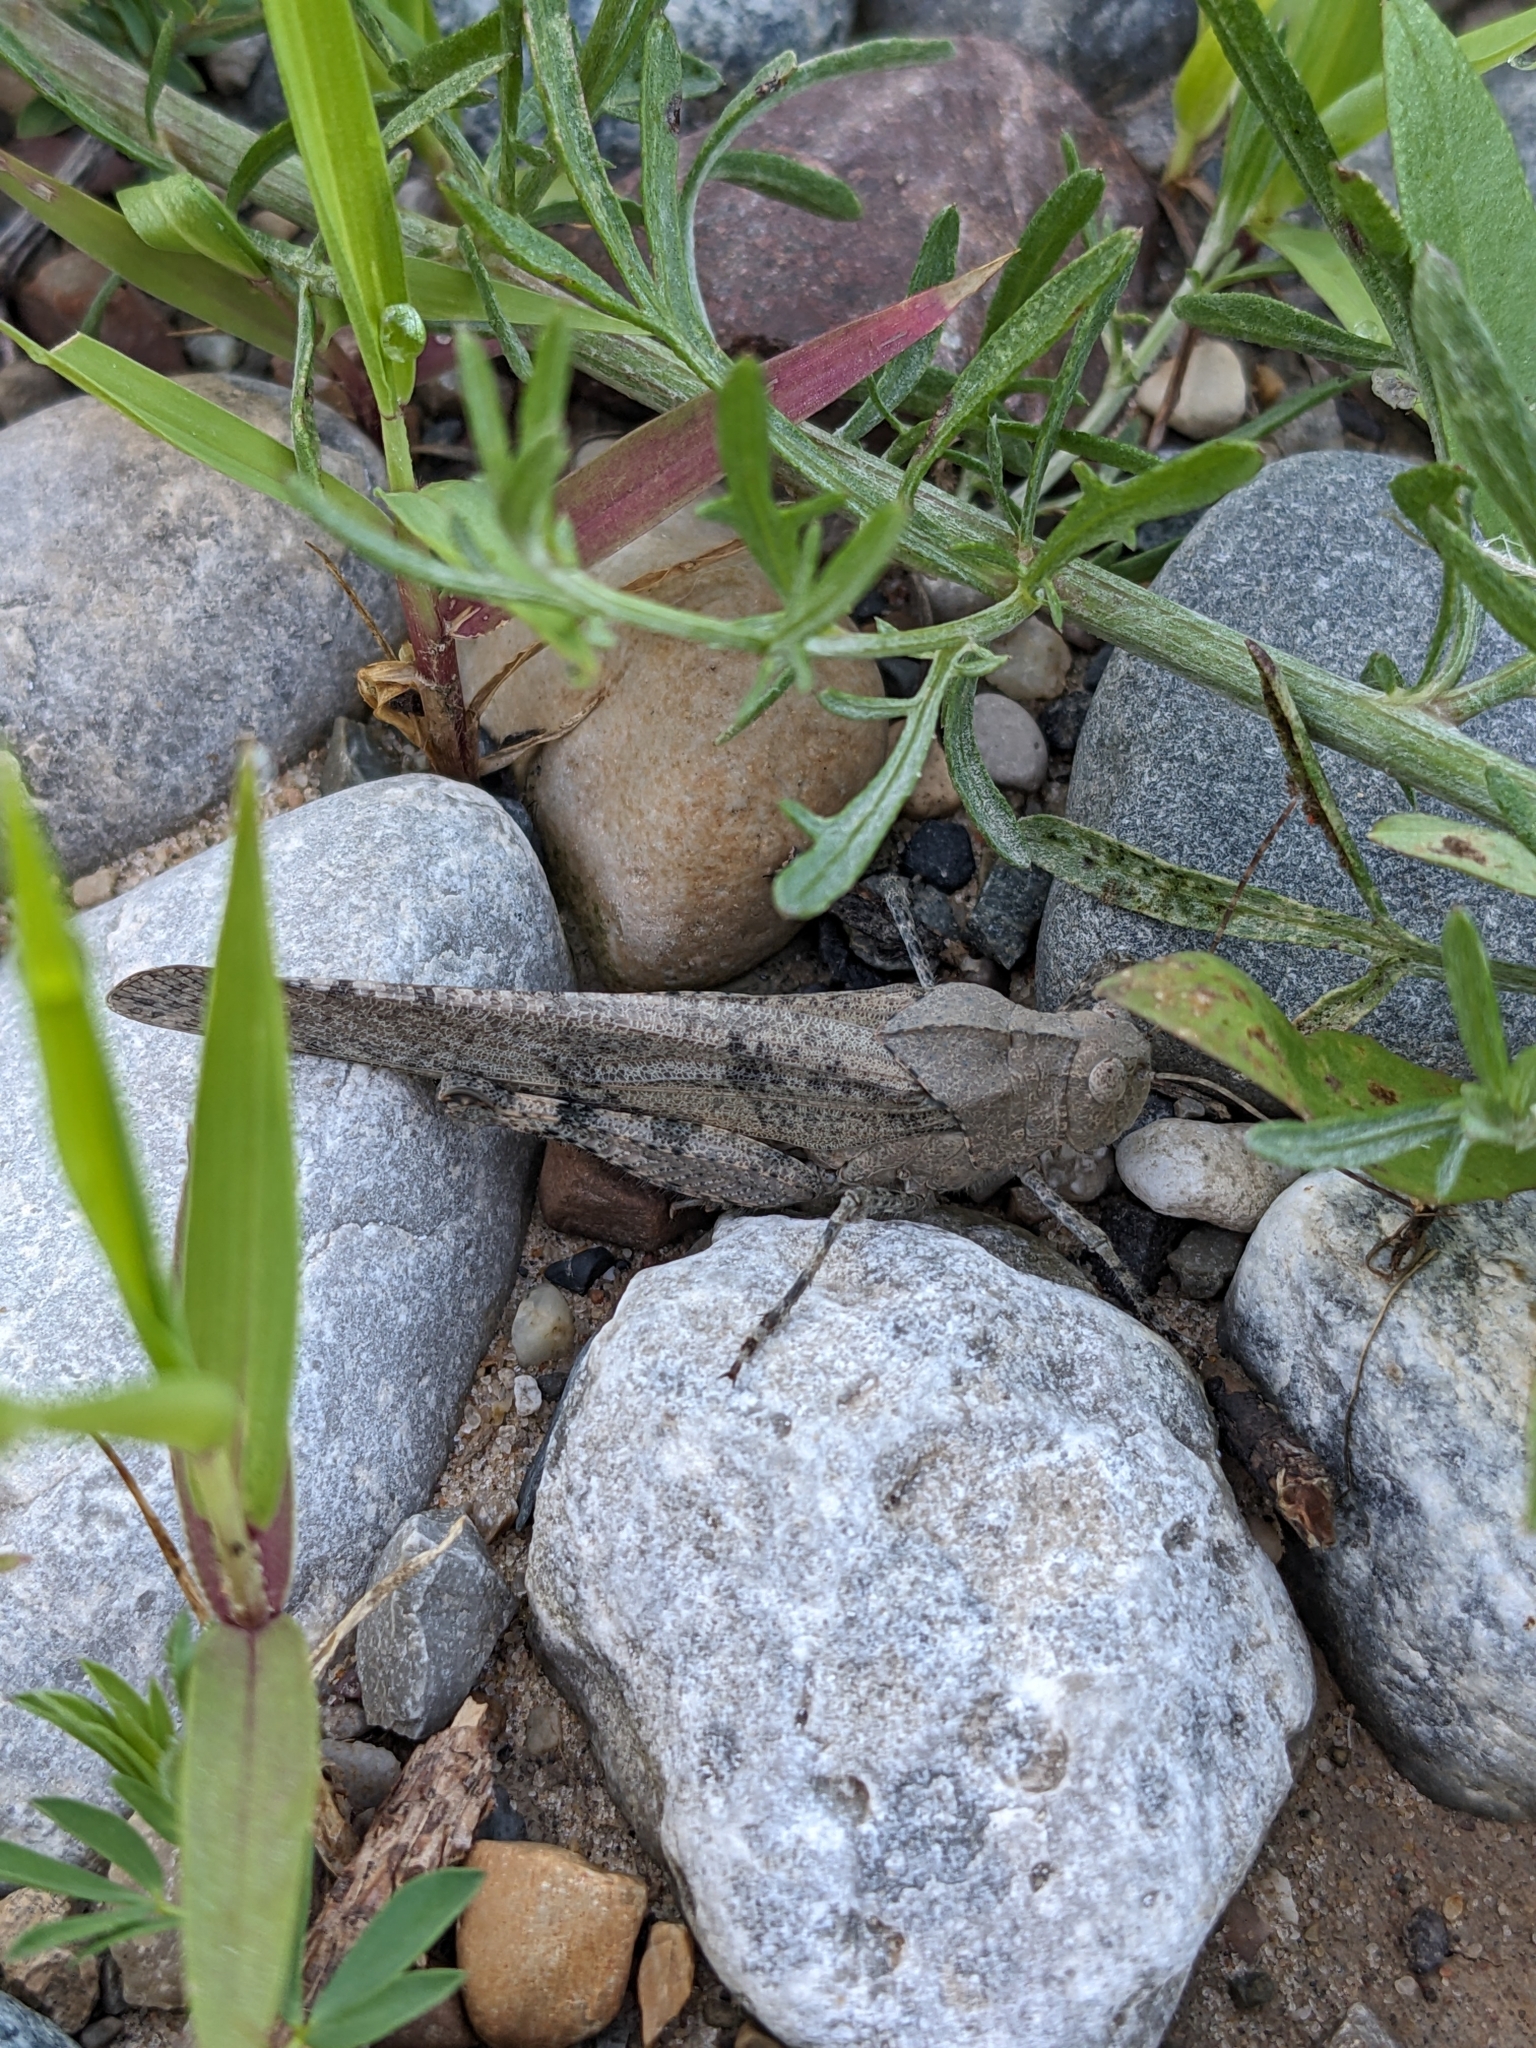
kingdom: Animalia
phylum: Arthropoda
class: Insecta
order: Orthoptera
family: Acrididae
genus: Dissosteira
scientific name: Dissosteira carolina
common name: Carolina grasshopper
